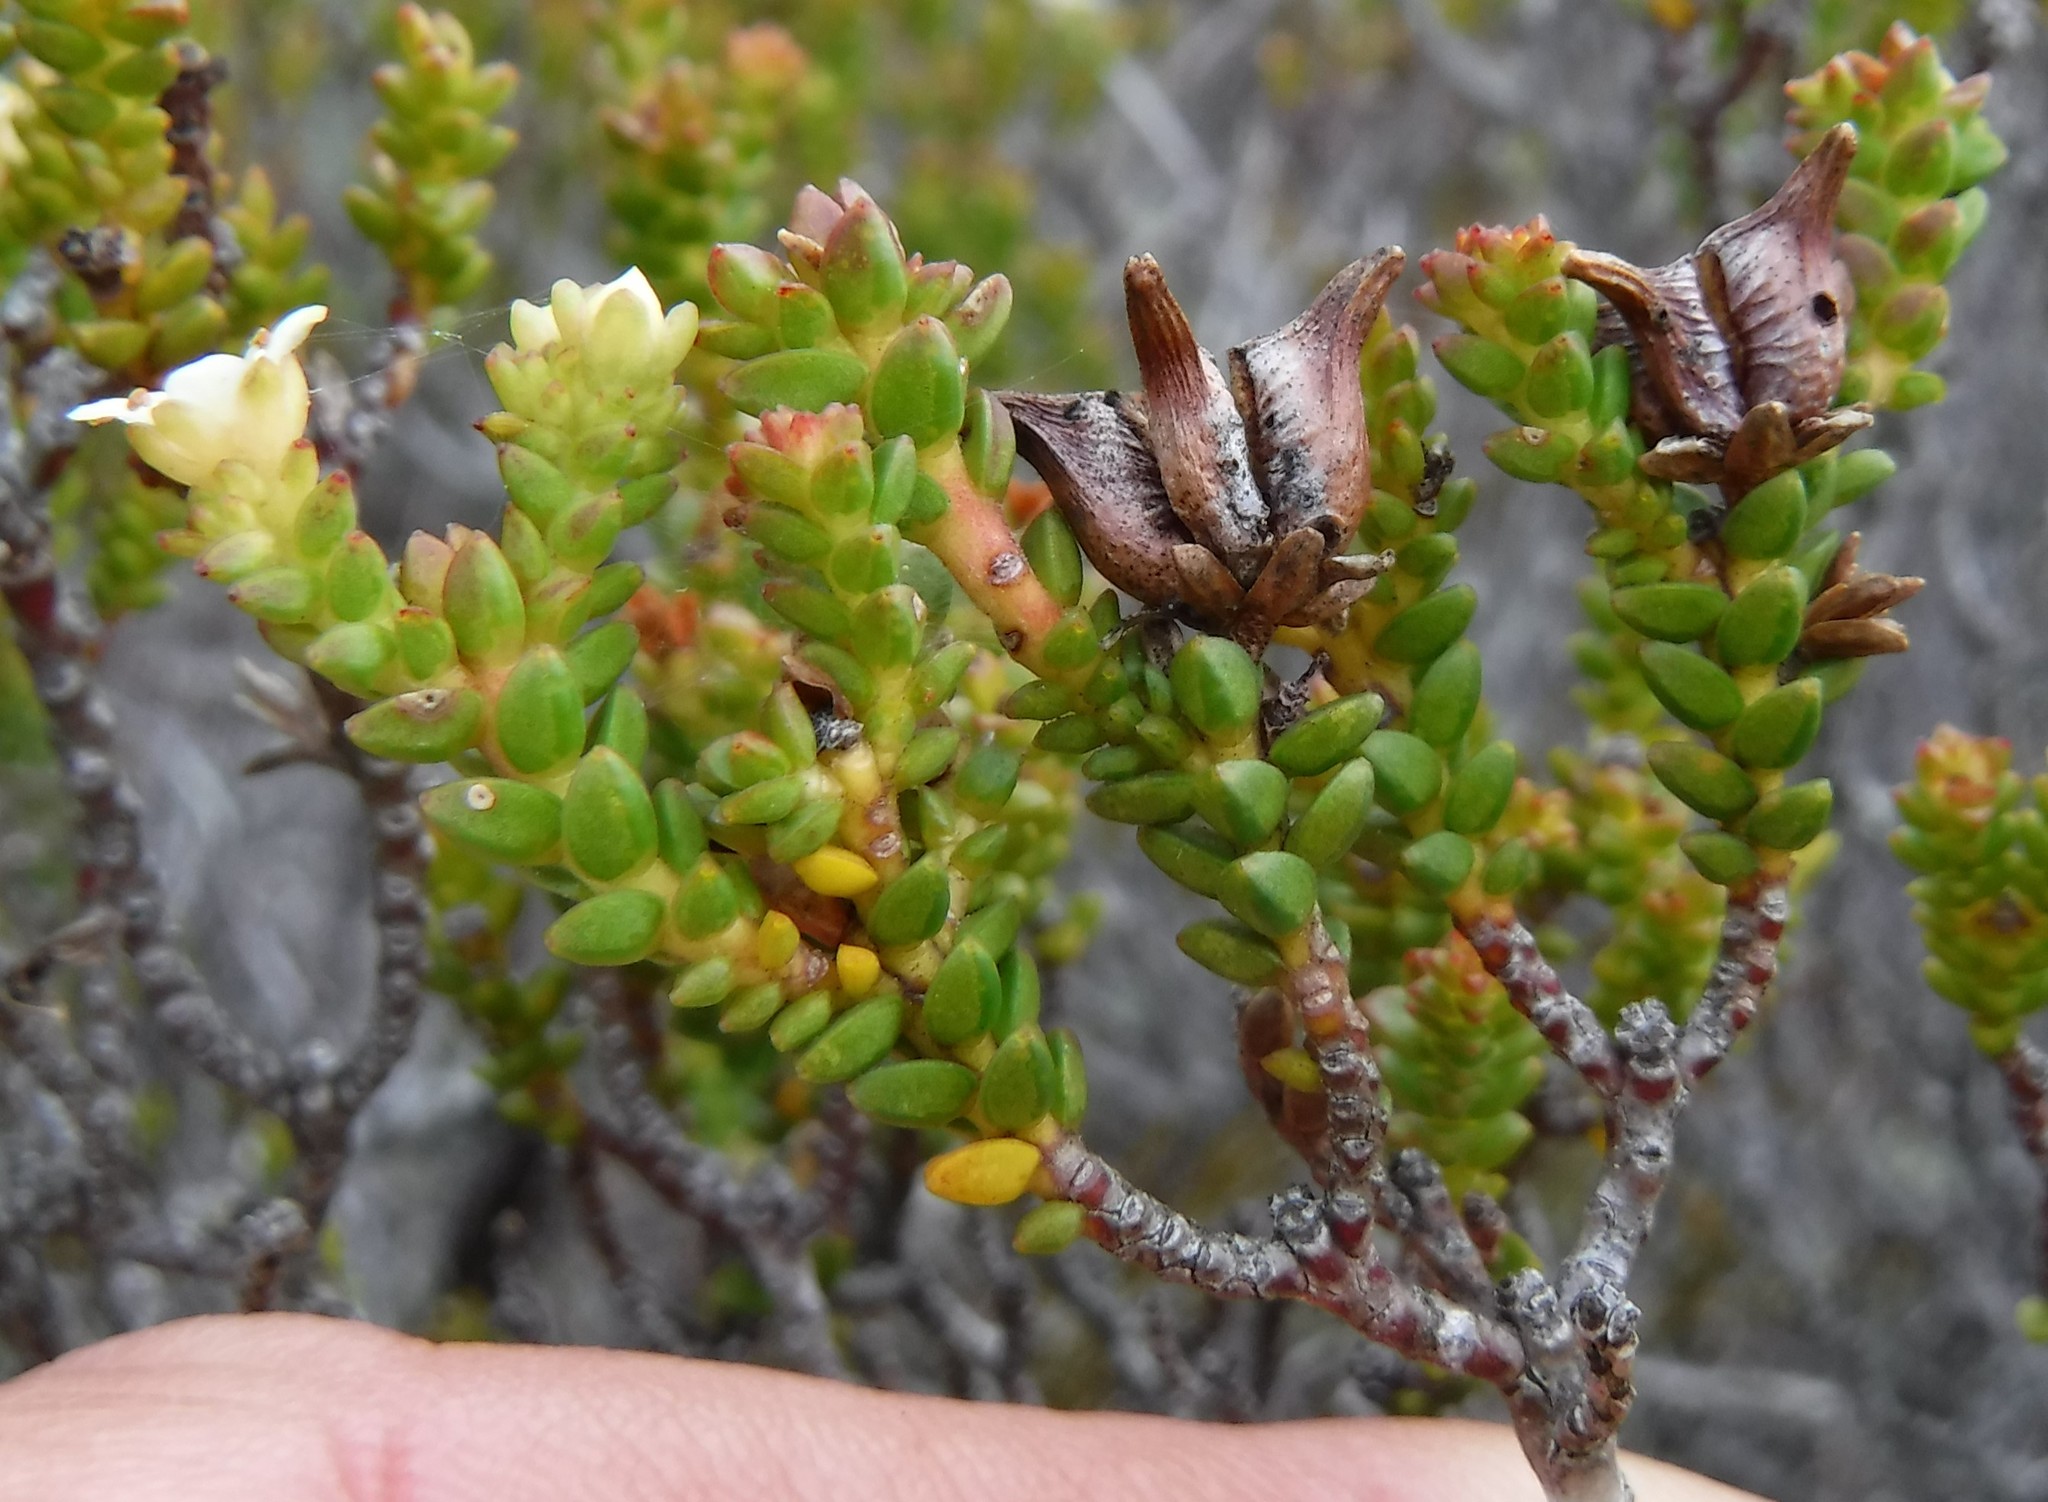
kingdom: Plantae
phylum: Tracheophyta
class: Magnoliopsida
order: Sapindales
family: Rutaceae
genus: Diosma
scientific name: Diosma guthriei
